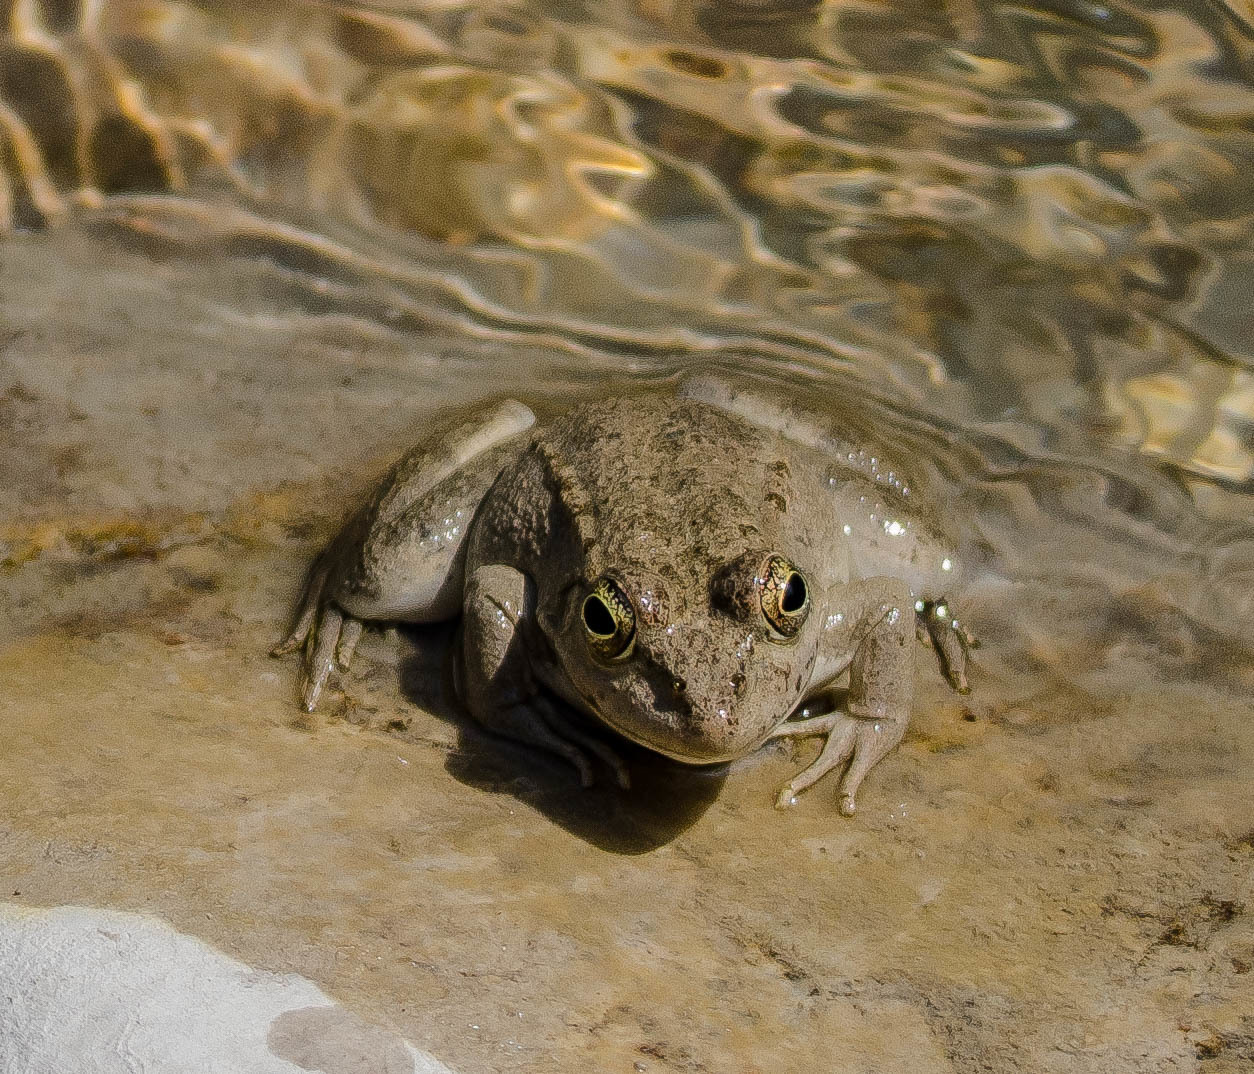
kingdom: Animalia
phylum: Chordata
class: Amphibia
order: Anura
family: Ranidae
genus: Pelophylax
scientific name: Pelophylax
